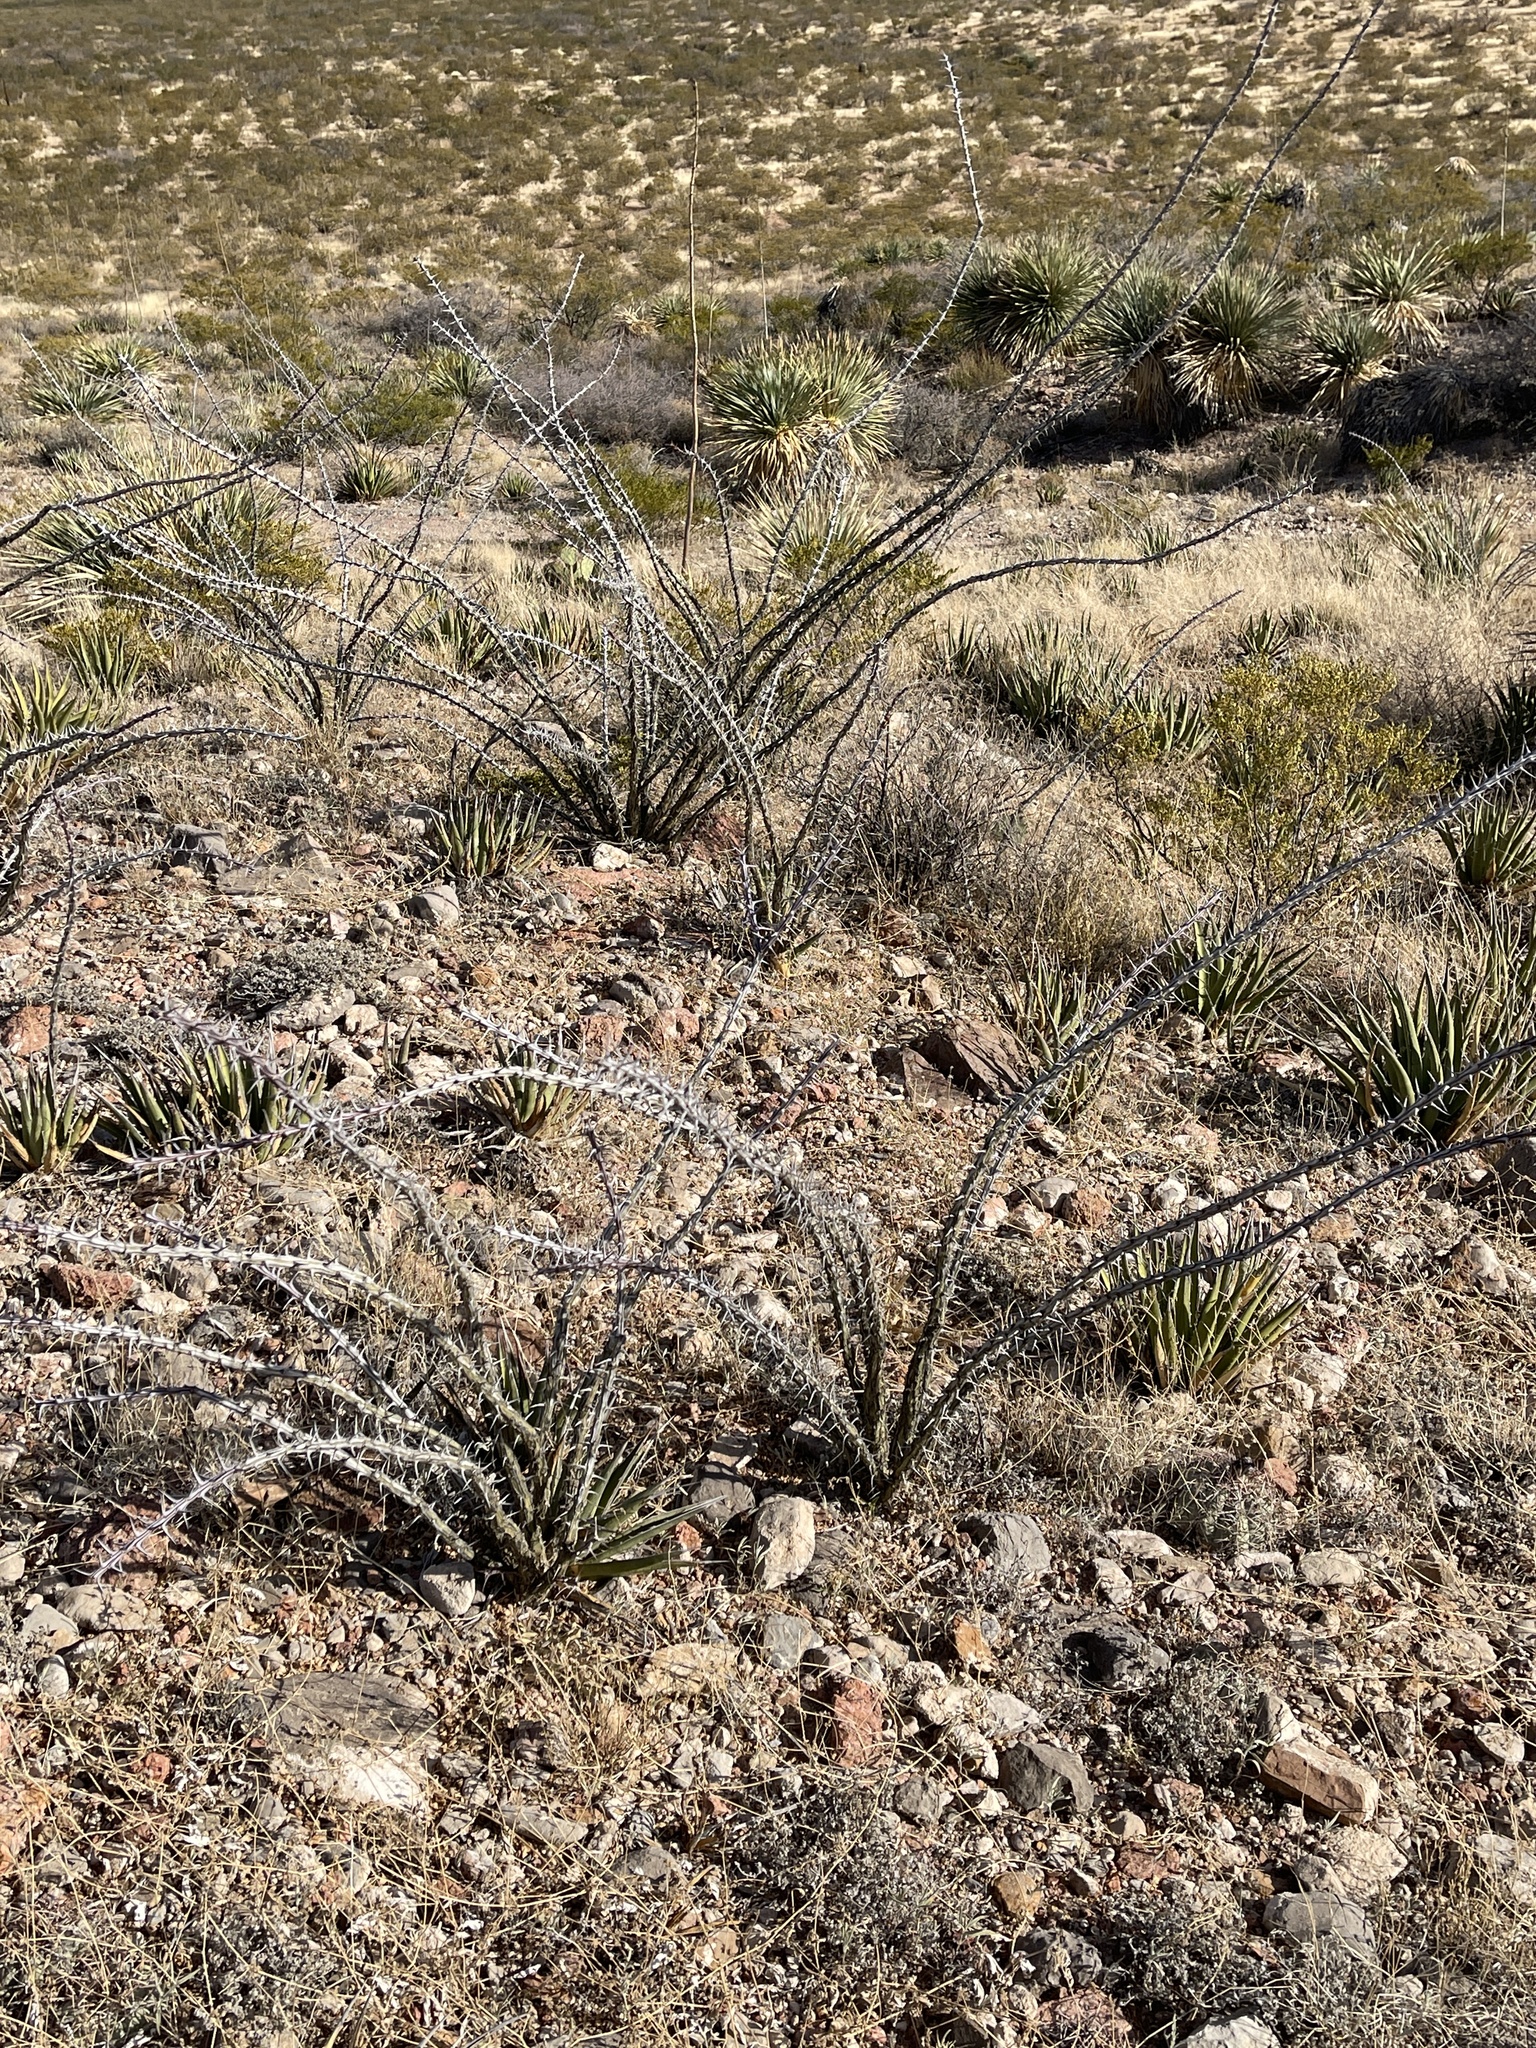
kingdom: Plantae
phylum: Tracheophyta
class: Magnoliopsida
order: Ericales
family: Fouquieriaceae
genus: Fouquieria
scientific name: Fouquieria splendens
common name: Vine-cactus
